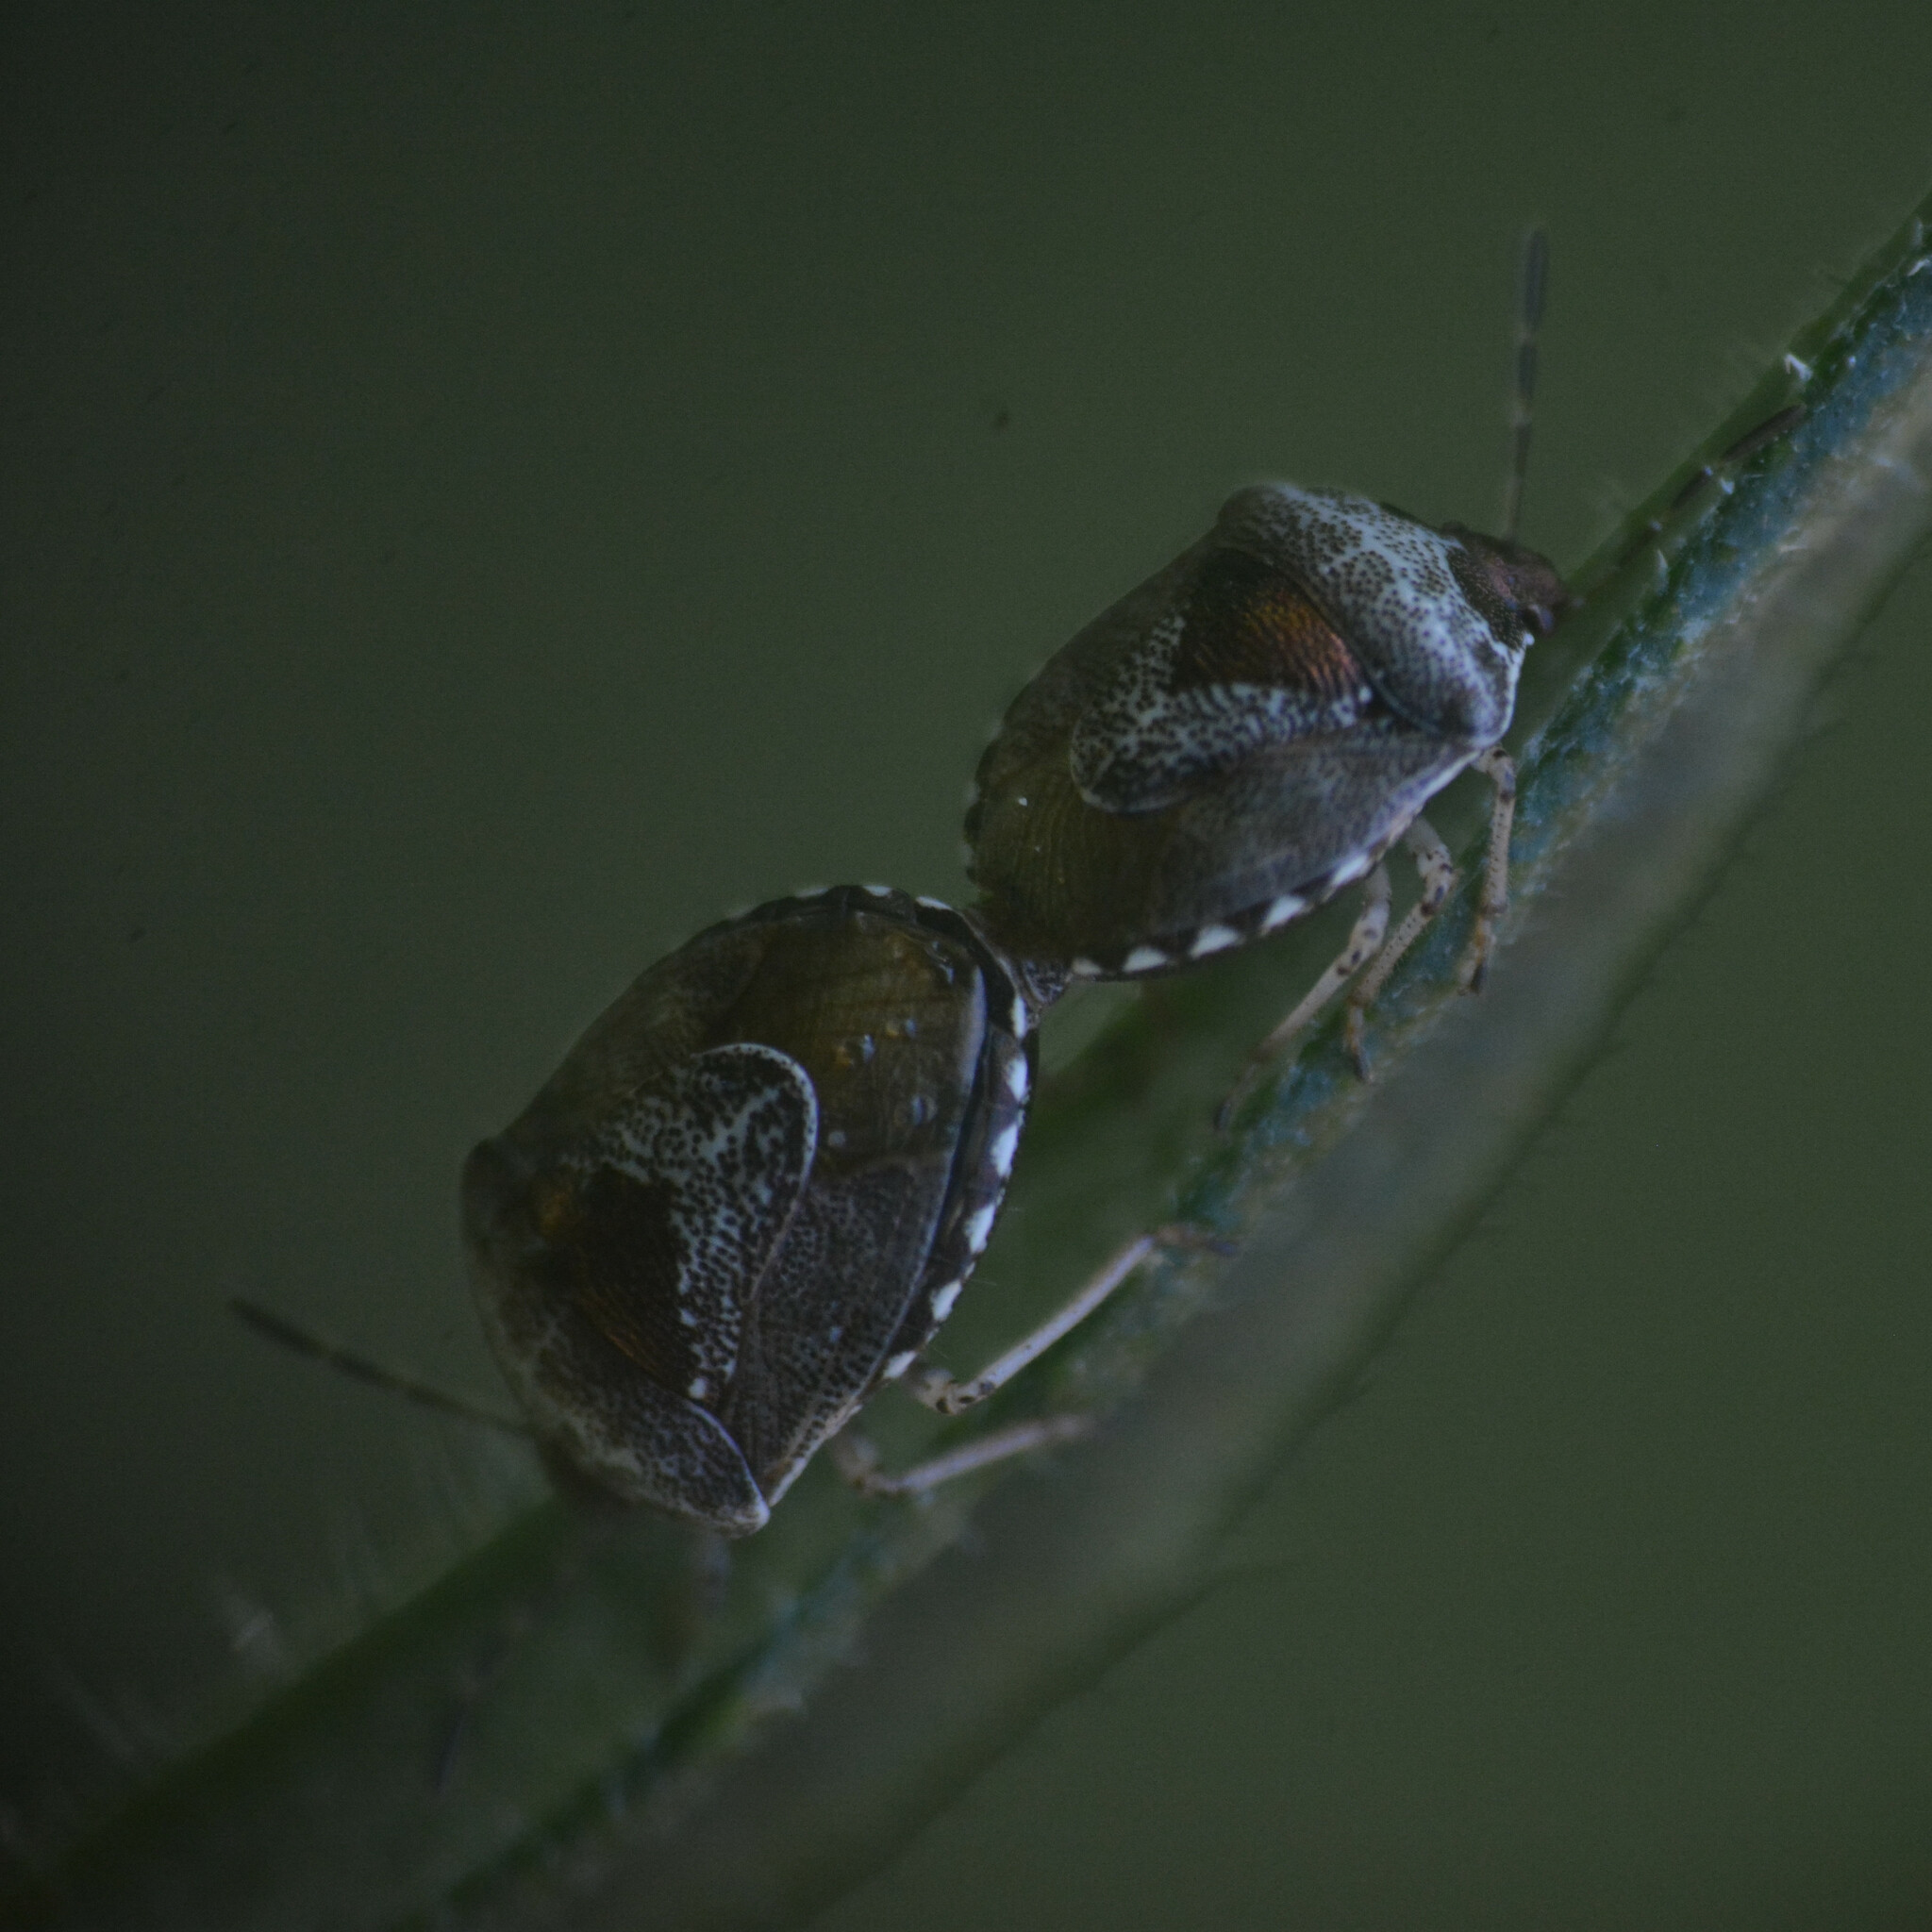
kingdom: Animalia
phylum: Arthropoda
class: Insecta
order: Hemiptera
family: Pentatomidae
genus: Eysarcoris
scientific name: Eysarcoris venustissimus
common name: Woundwort shieldbug
